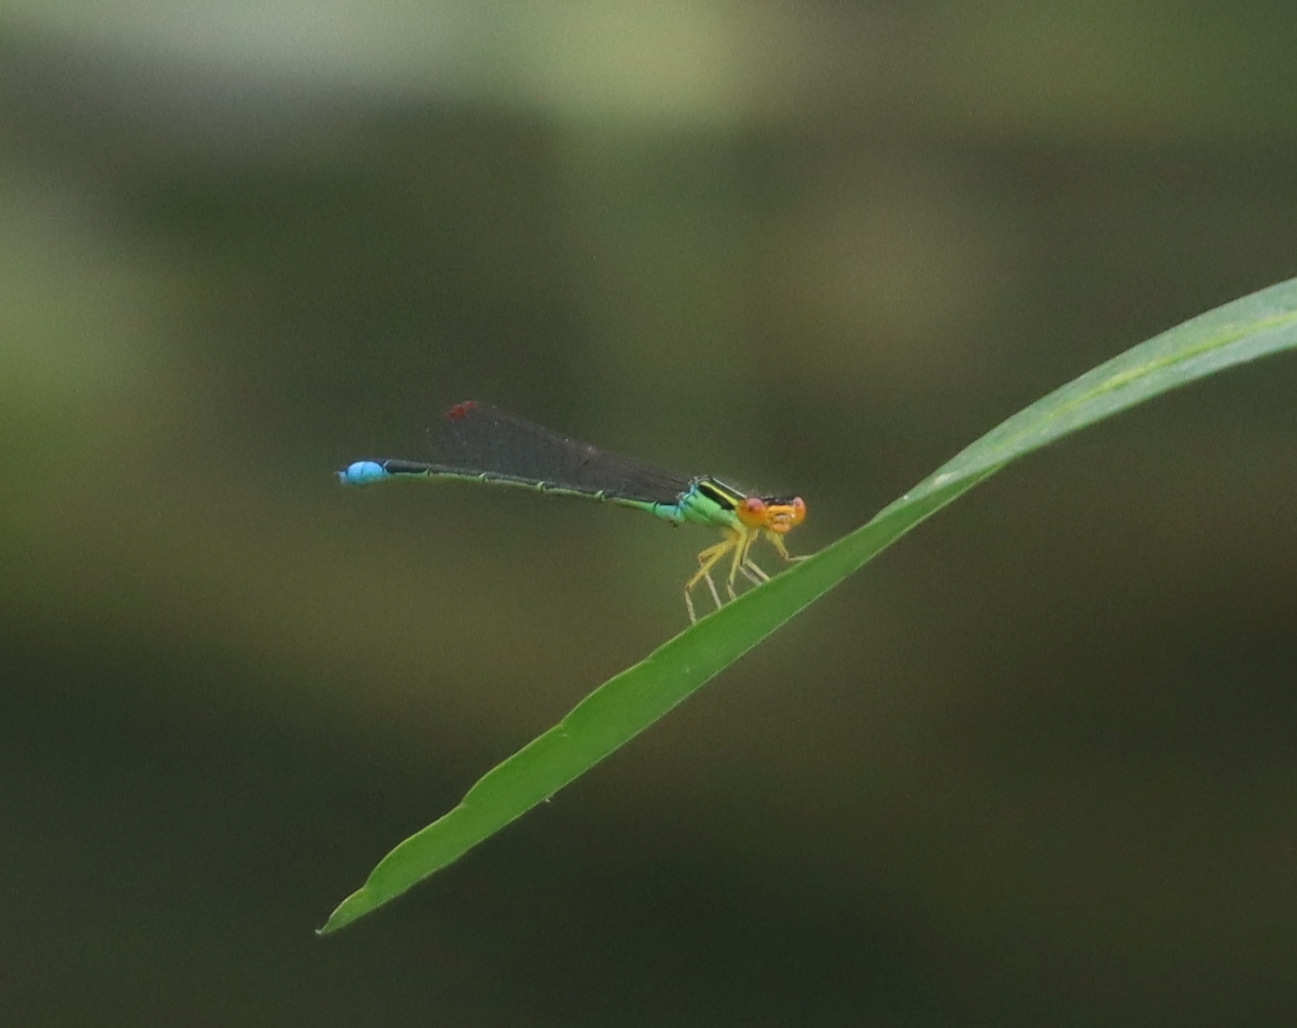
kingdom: Animalia
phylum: Arthropoda
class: Insecta
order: Odonata
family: Coenagrionidae
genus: Enallagma
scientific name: Enallagma antennatum
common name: Rainbow bluet
